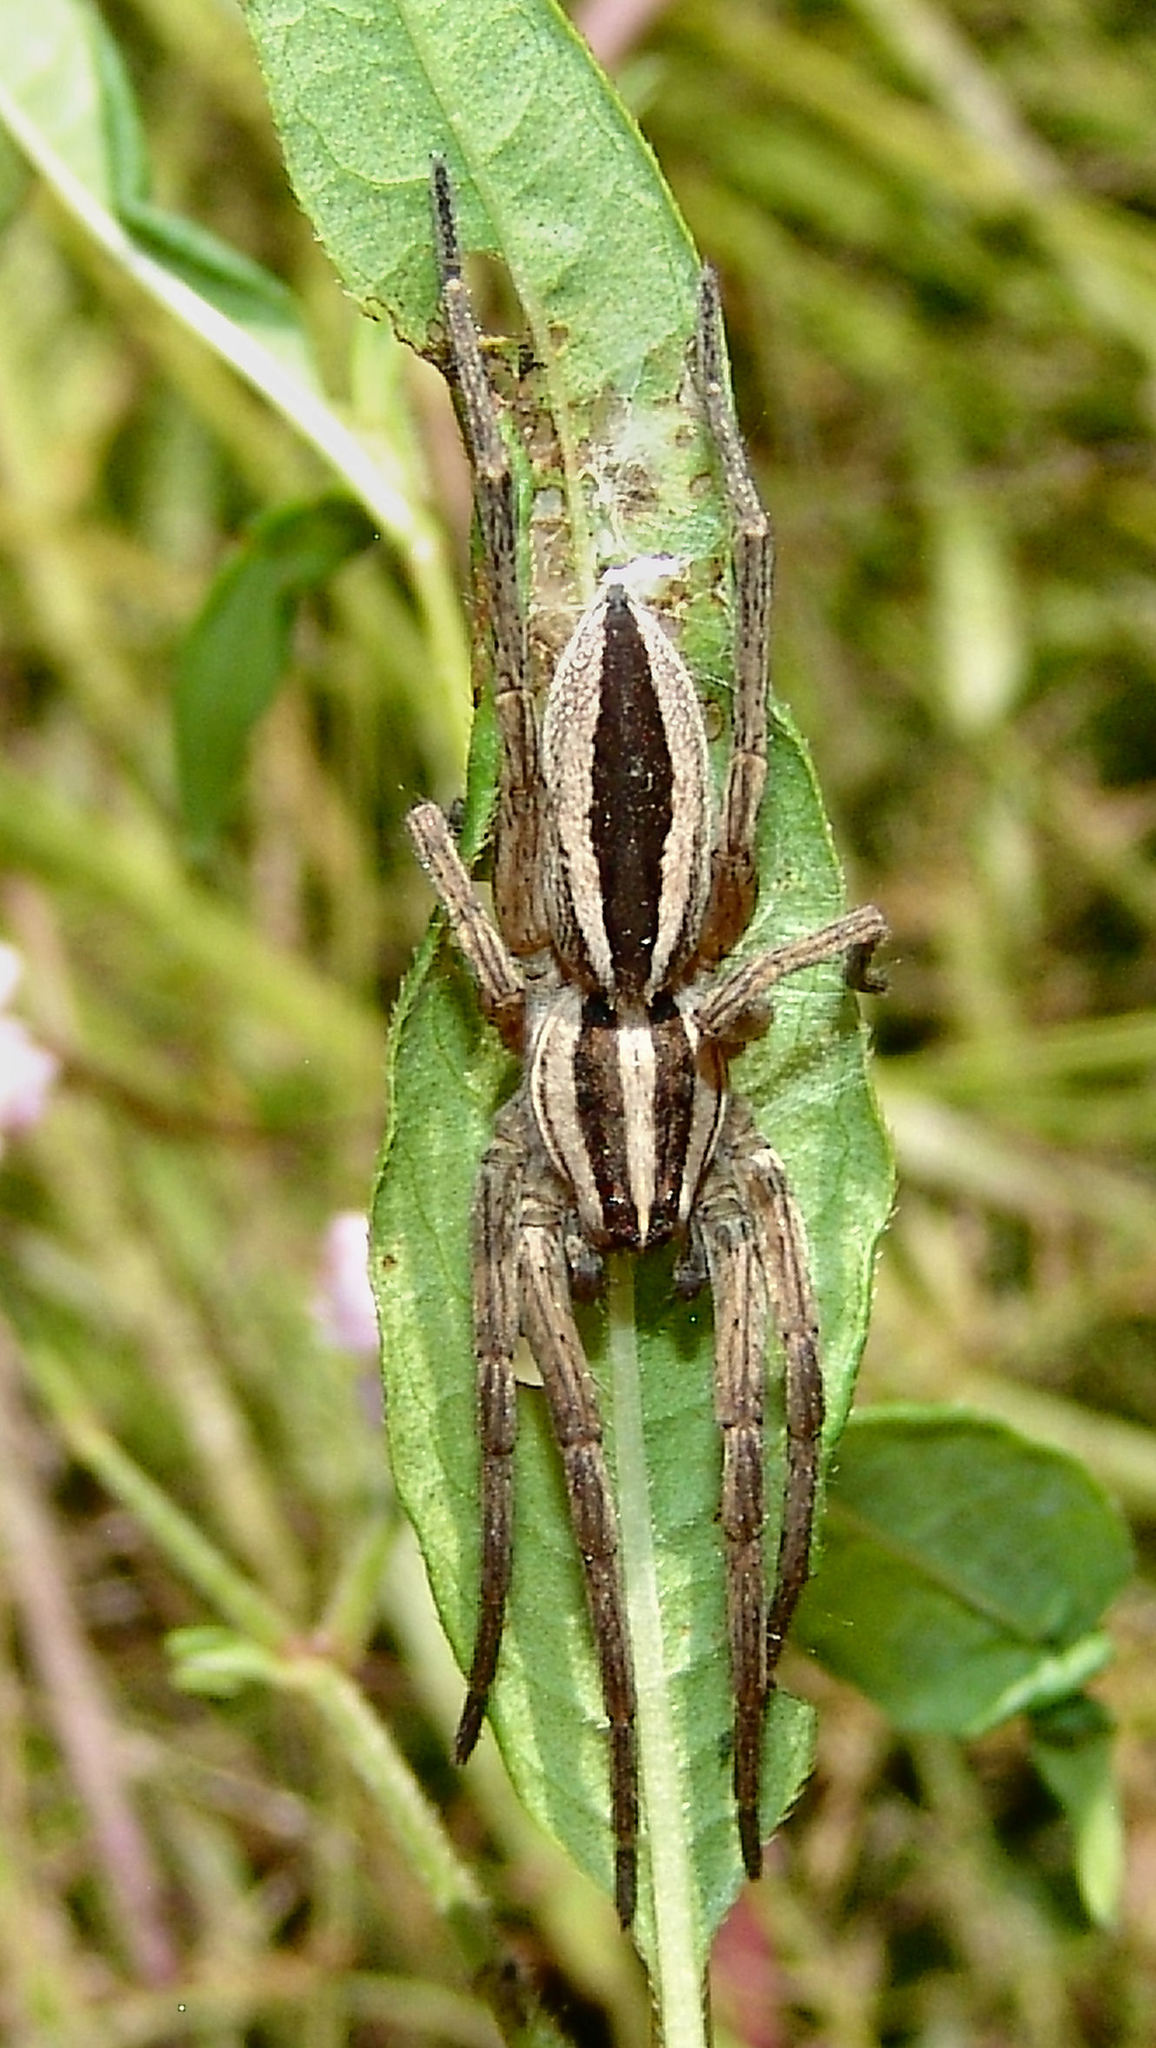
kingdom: Animalia
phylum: Arthropoda
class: Arachnida
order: Araneae
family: Lycosidae
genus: Rabidosa
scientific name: Rabidosa punctulata
